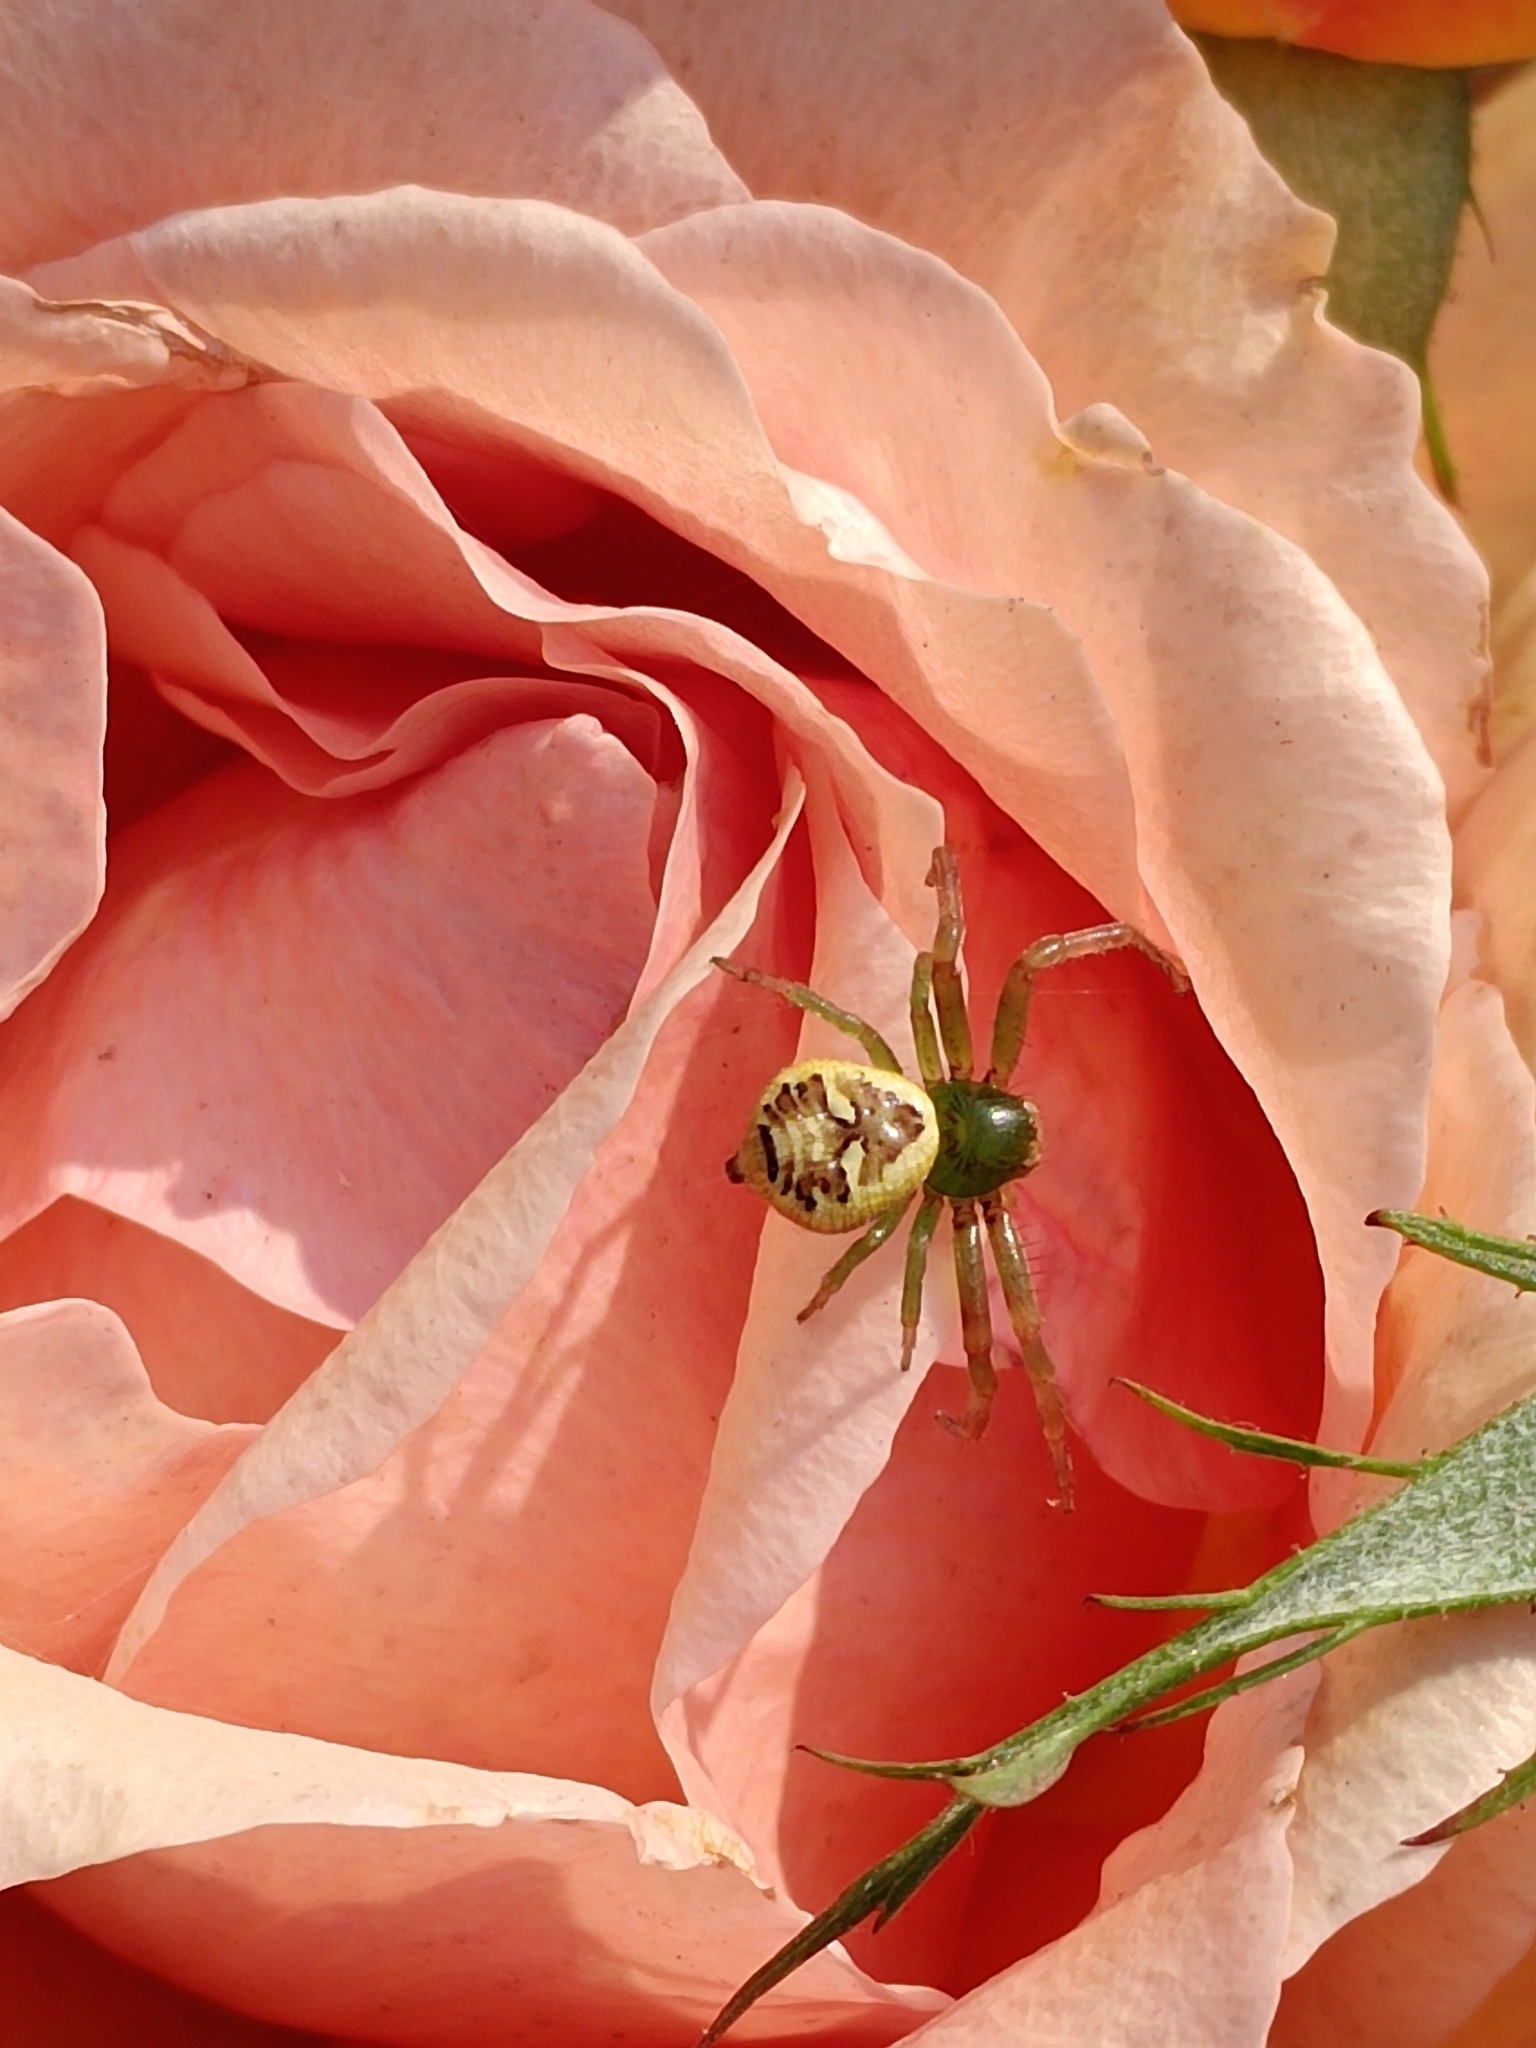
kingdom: Animalia
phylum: Arthropoda
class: Arachnida
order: Araneae
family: Thomisidae
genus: Synema
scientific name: Synema imitatrix
